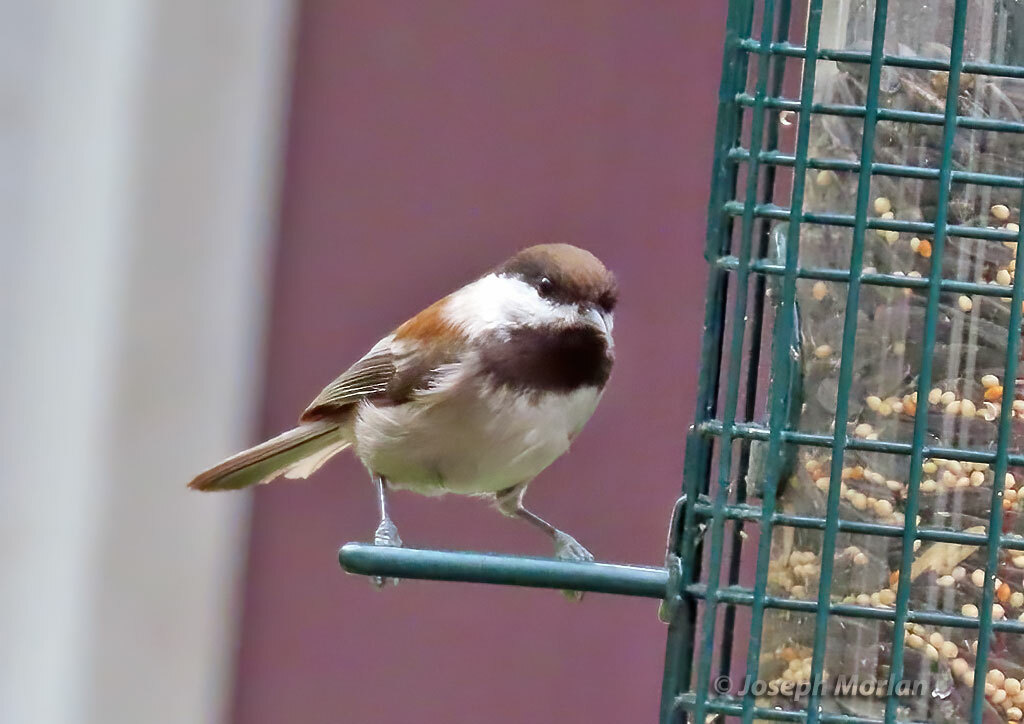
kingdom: Animalia
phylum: Chordata
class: Aves
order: Passeriformes
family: Paridae
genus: Poecile
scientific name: Poecile rufescens
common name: Chestnut-backed chickadee
